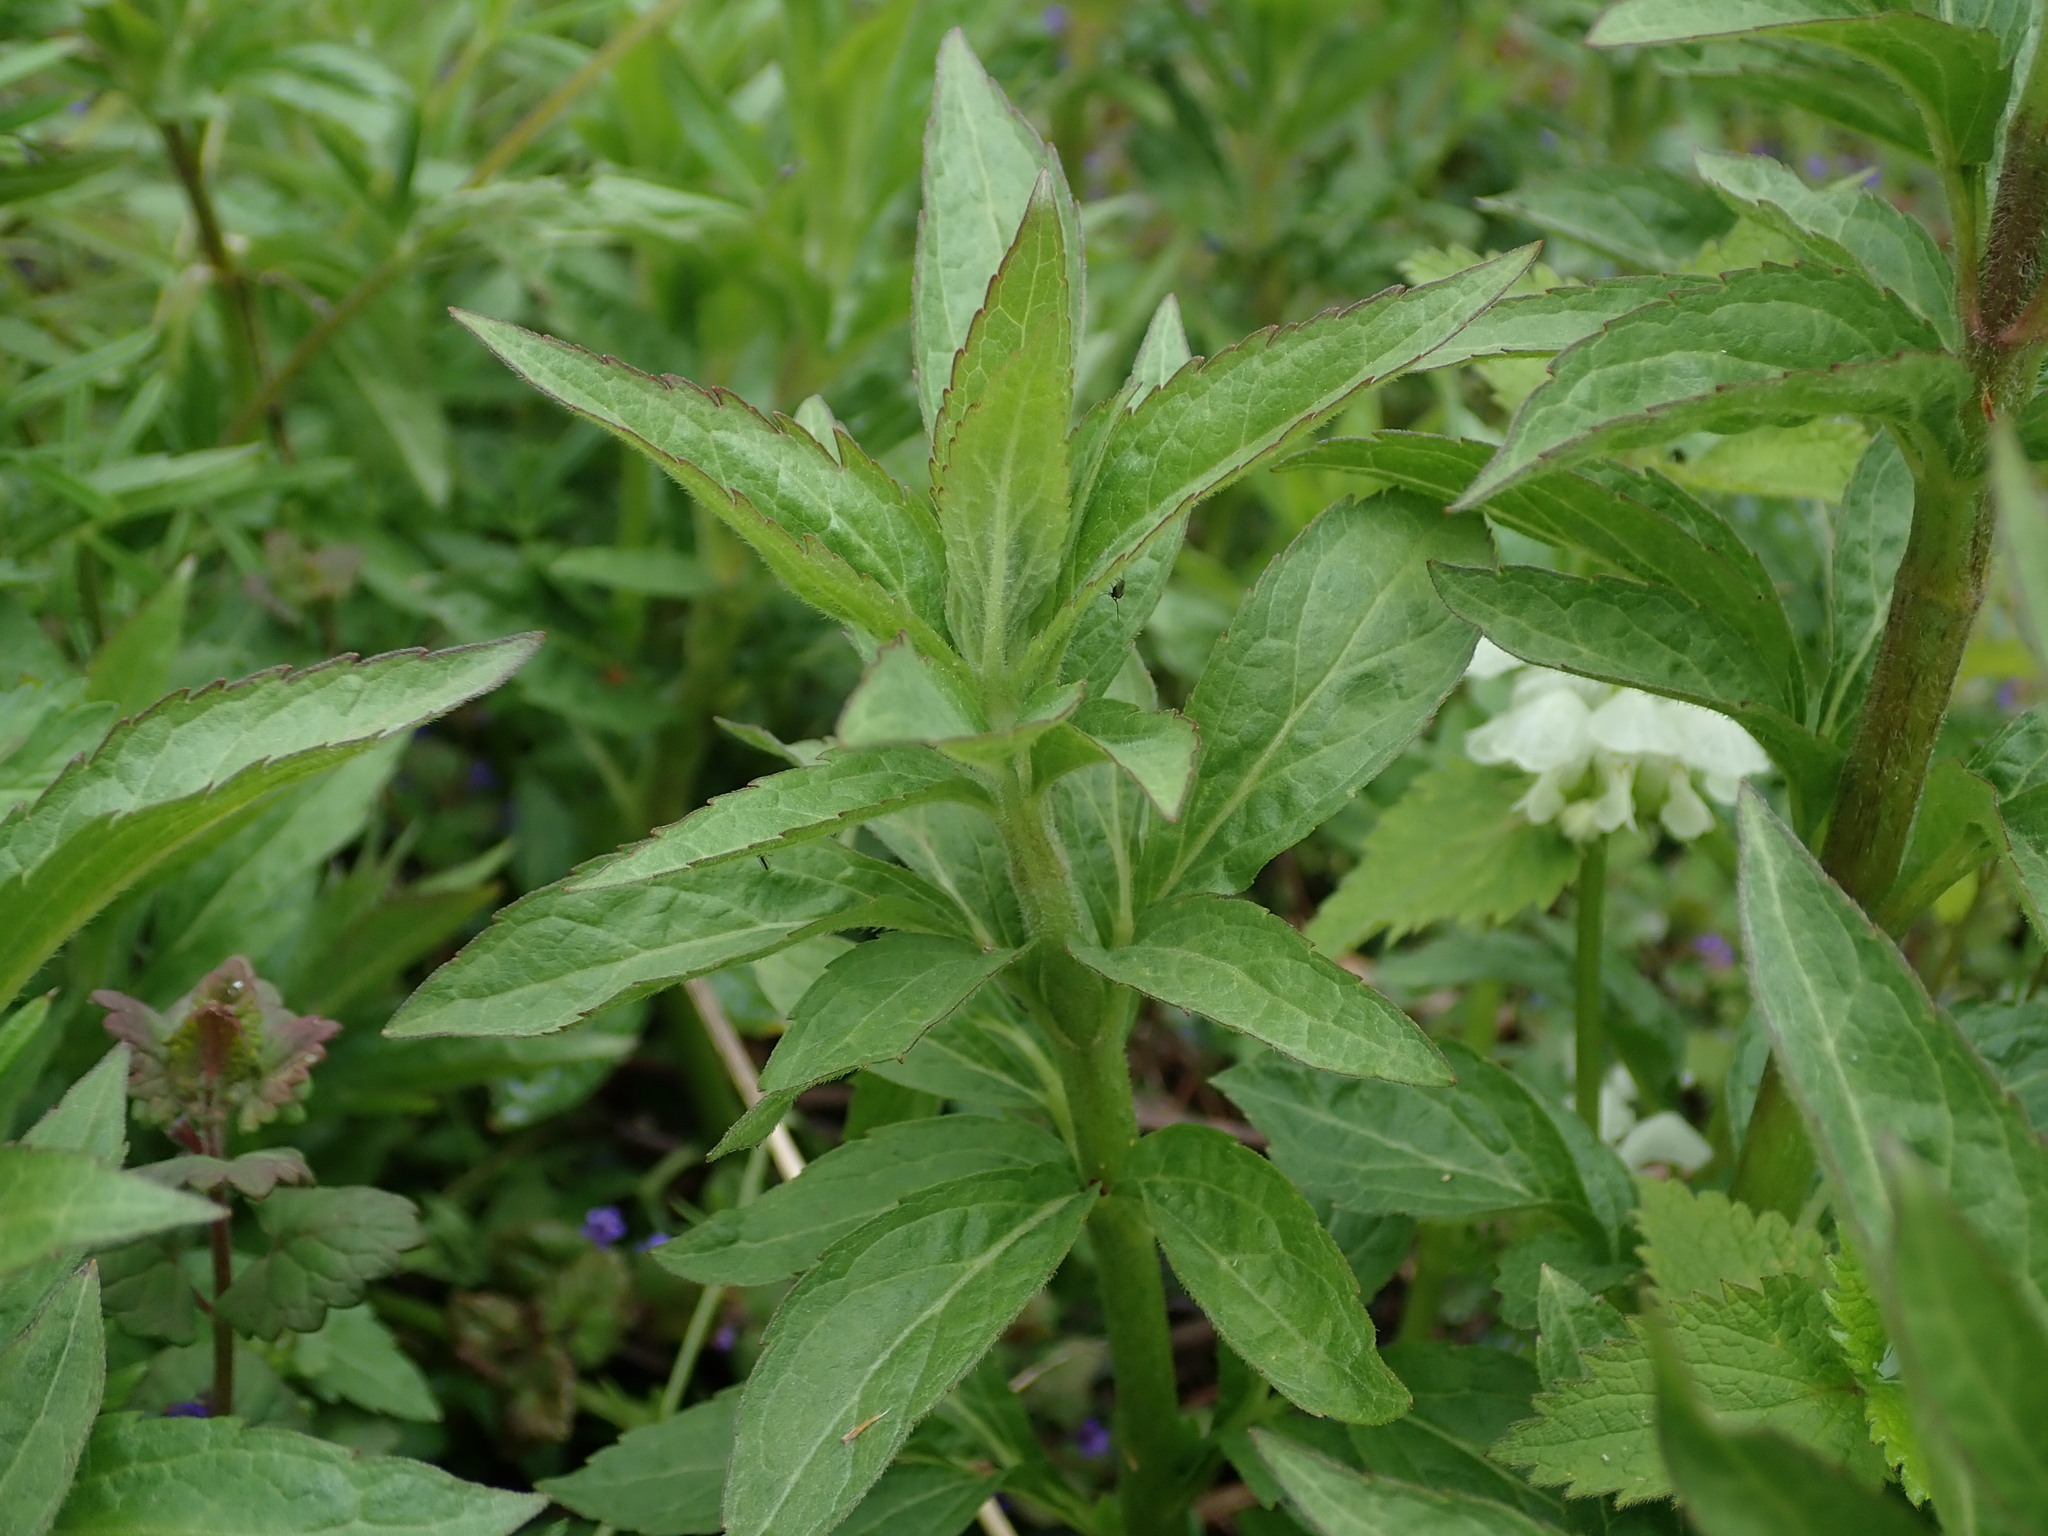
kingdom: Plantae
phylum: Tracheophyta
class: Magnoliopsida
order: Asterales
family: Asteraceae
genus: Eupatorium
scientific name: Eupatorium cannabinum
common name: Hemp-agrimony
